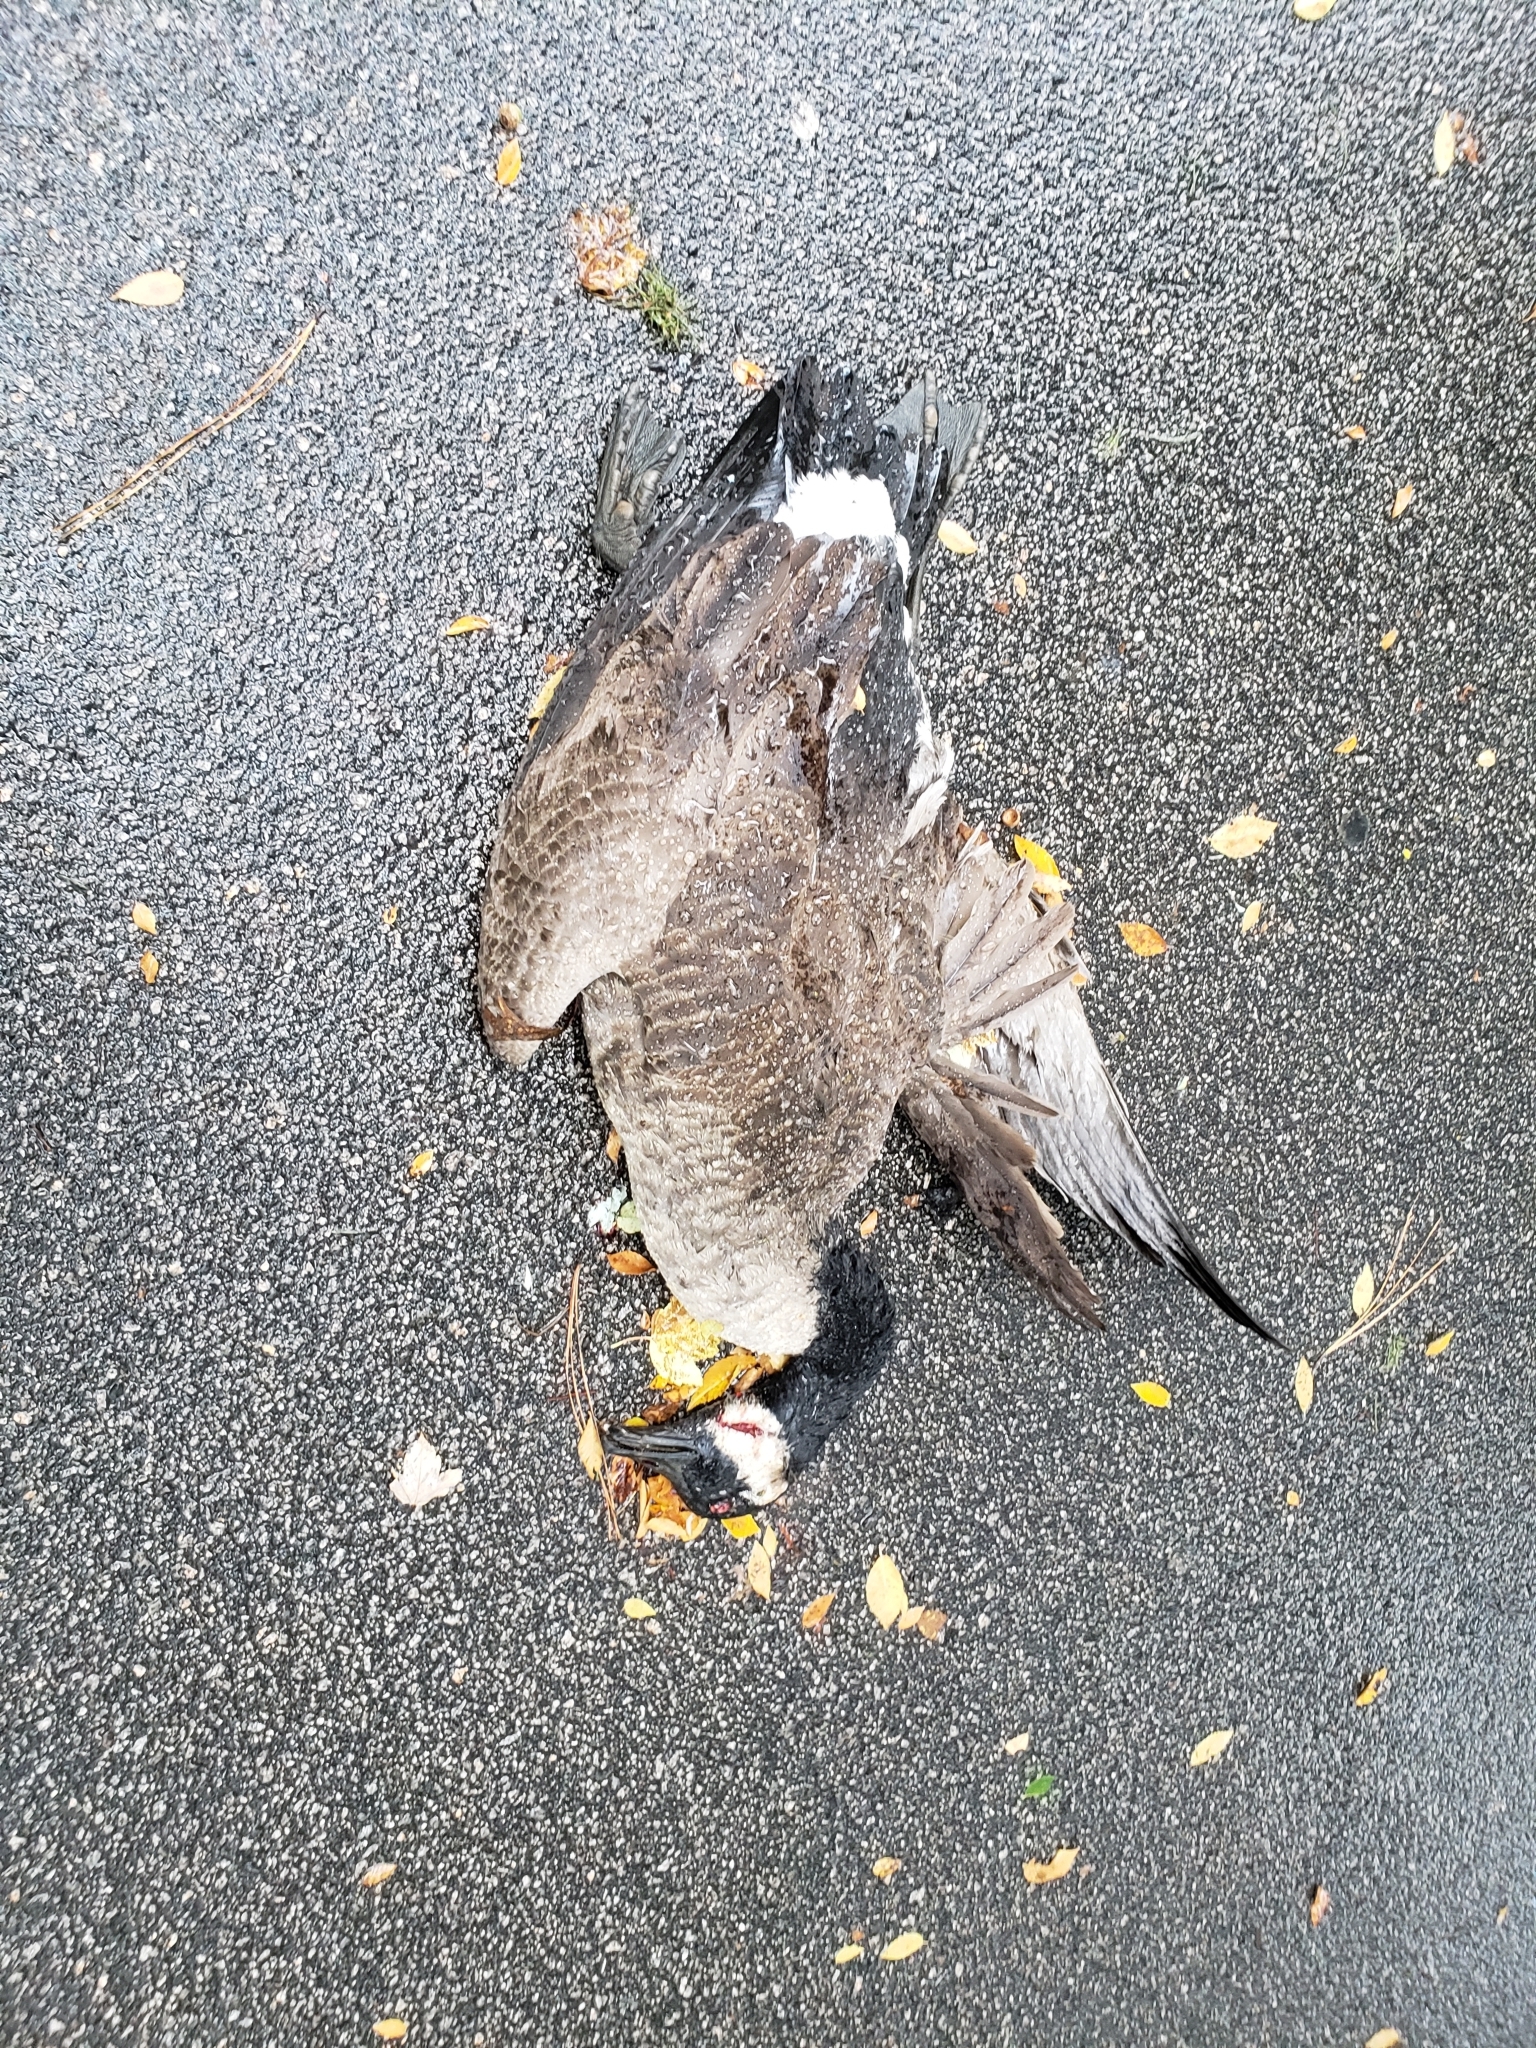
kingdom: Animalia
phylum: Chordata
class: Aves
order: Anseriformes
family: Anatidae
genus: Branta
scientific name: Branta canadensis
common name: Canada goose
